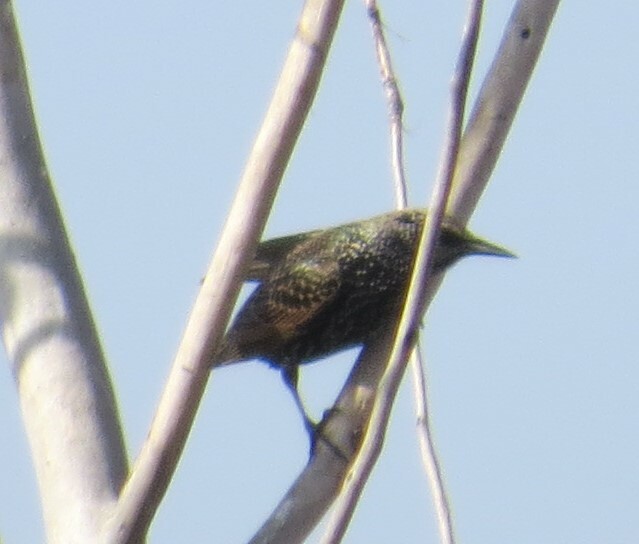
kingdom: Animalia
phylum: Chordata
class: Aves
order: Passeriformes
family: Sturnidae
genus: Sturnus
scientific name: Sturnus vulgaris
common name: Common starling
